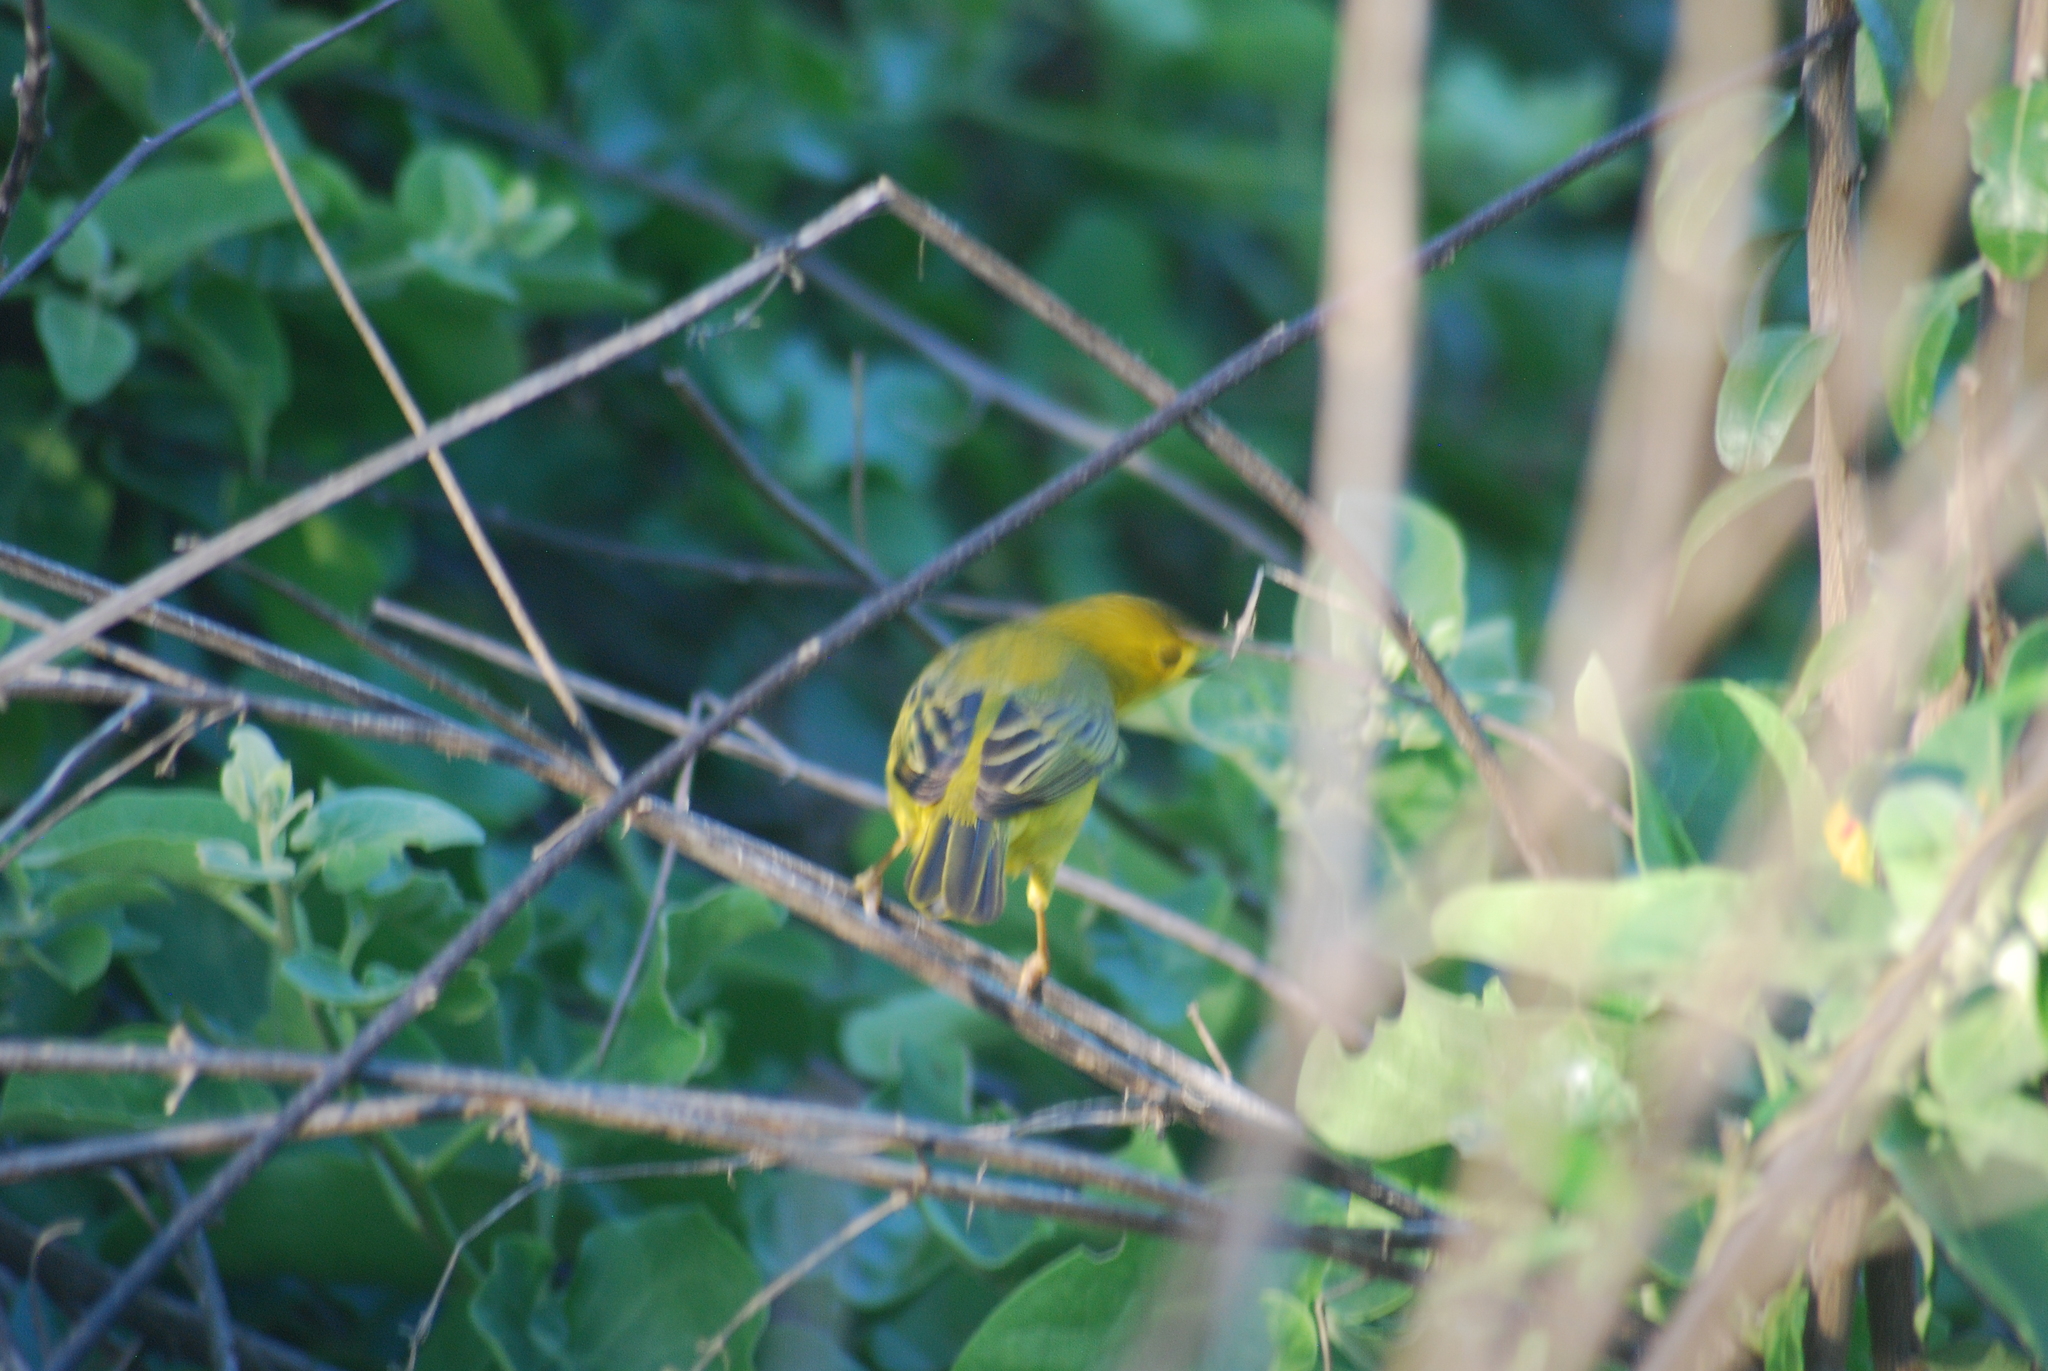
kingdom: Animalia
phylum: Chordata
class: Aves
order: Passeriformes
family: Parulidae
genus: Setophaga
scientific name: Setophaga petechia
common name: Yellow warbler
